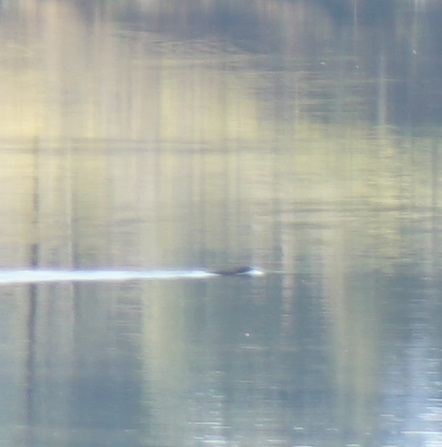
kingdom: Animalia
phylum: Chordata
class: Mammalia
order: Rodentia
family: Muridae
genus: Hydromys
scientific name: Hydromys chrysogaster
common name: Common water rat
